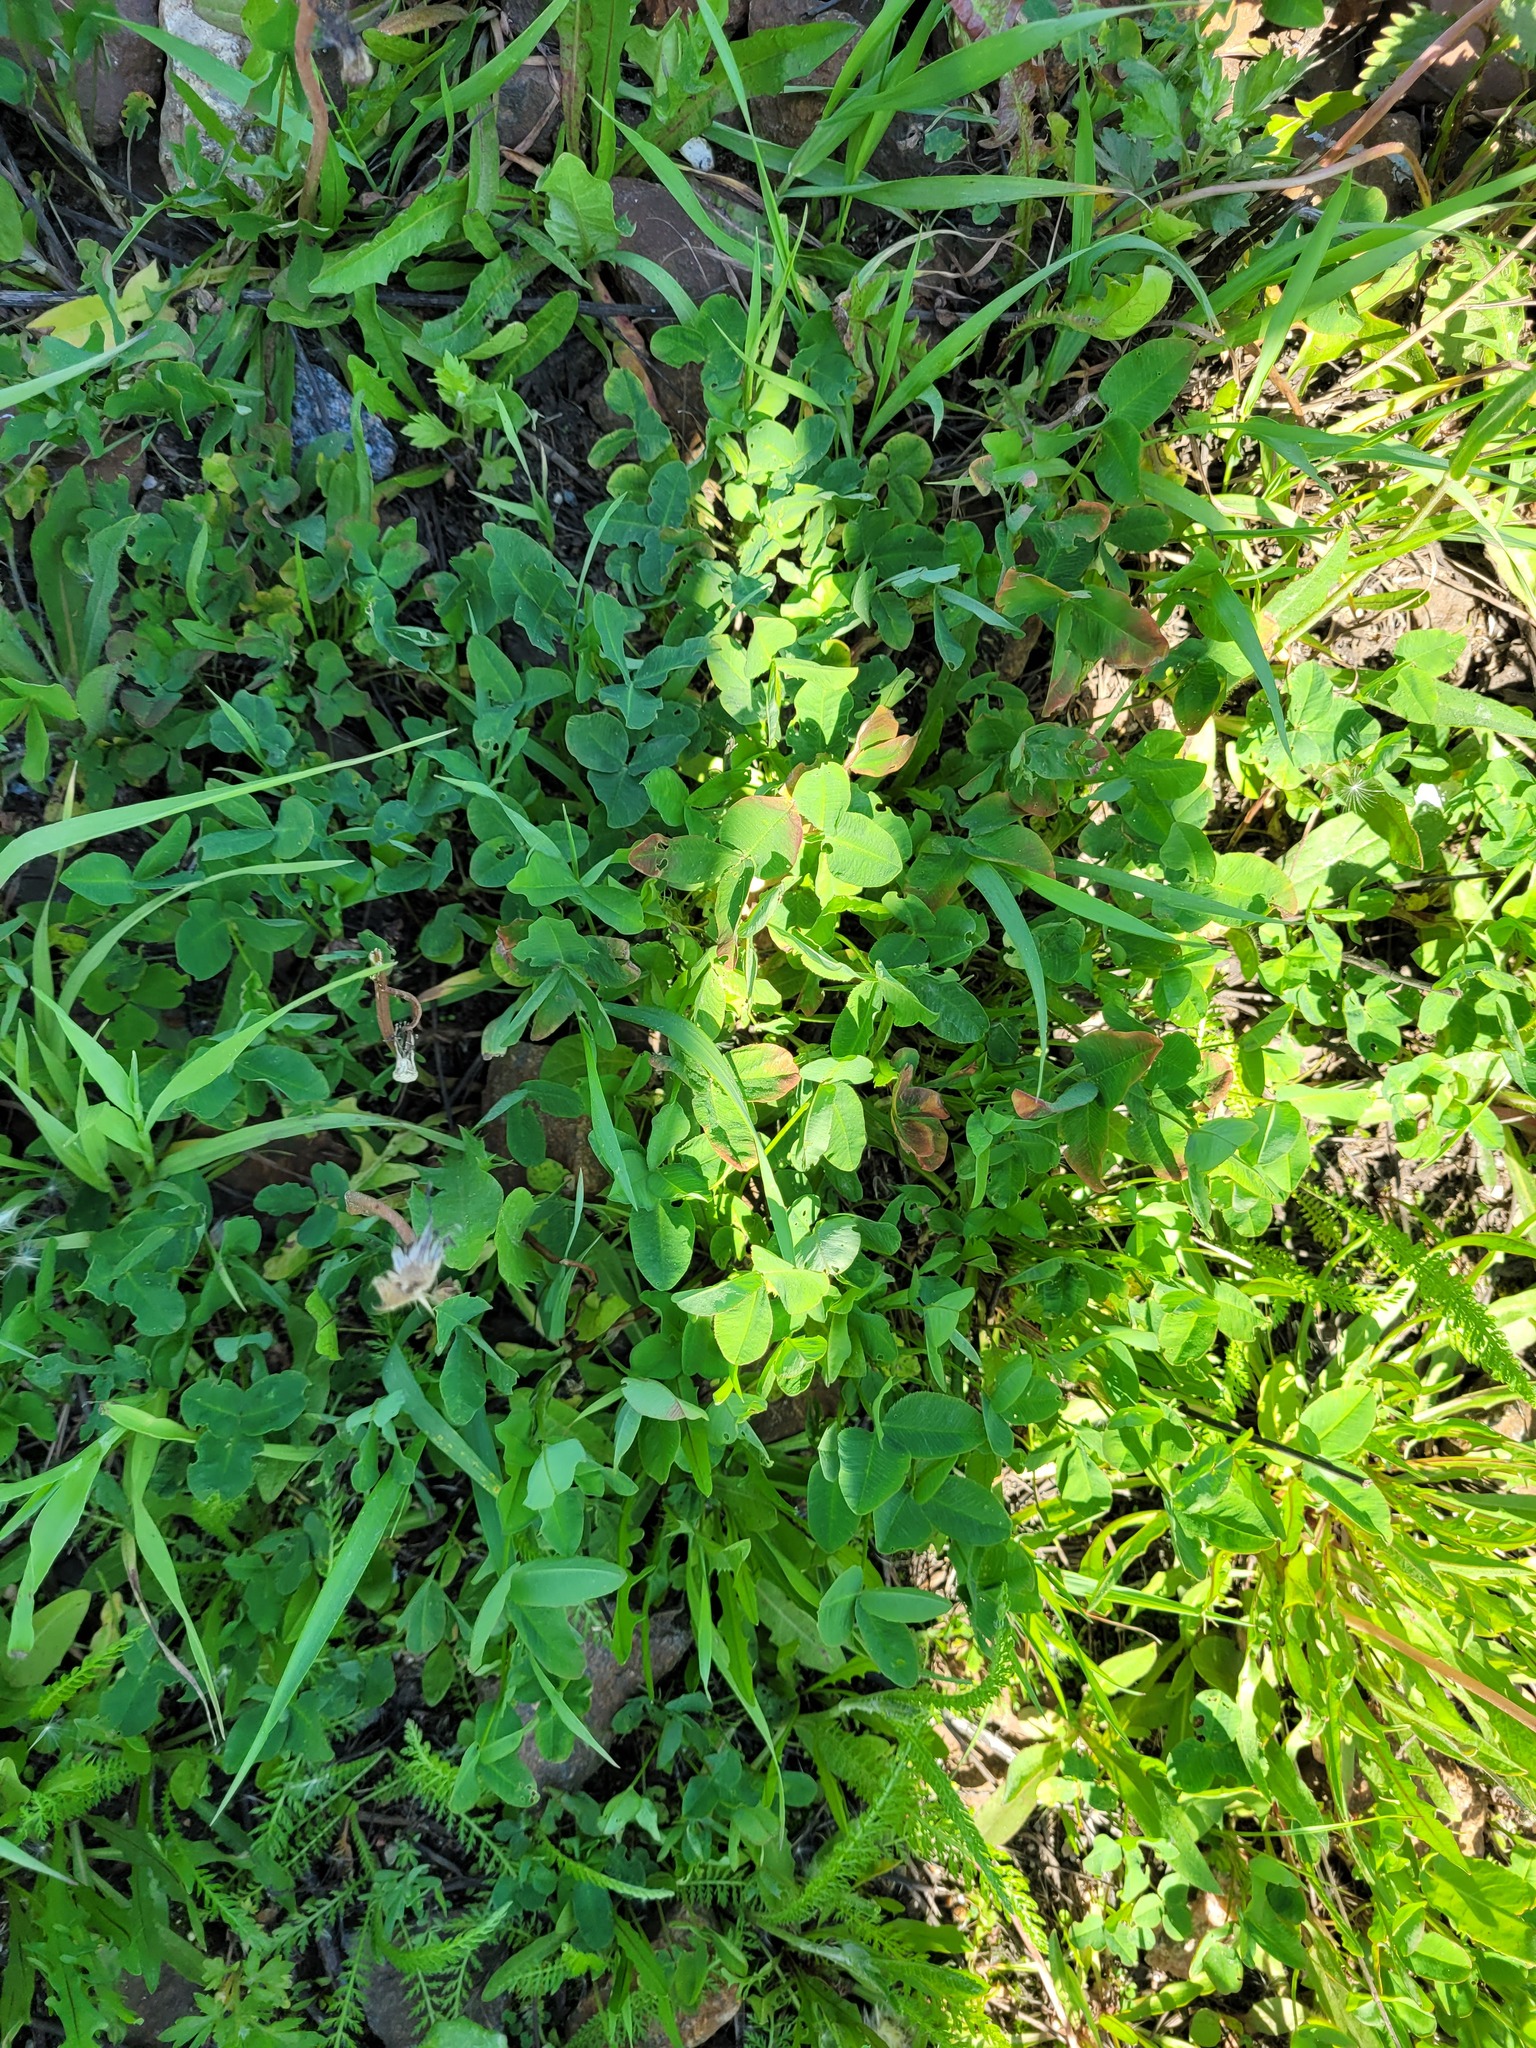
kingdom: Plantae
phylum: Tracheophyta
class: Magnoliopsida
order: Fabales
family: Fabaceae
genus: Trifolium
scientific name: Trifolium hybridum
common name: Alsike clover
